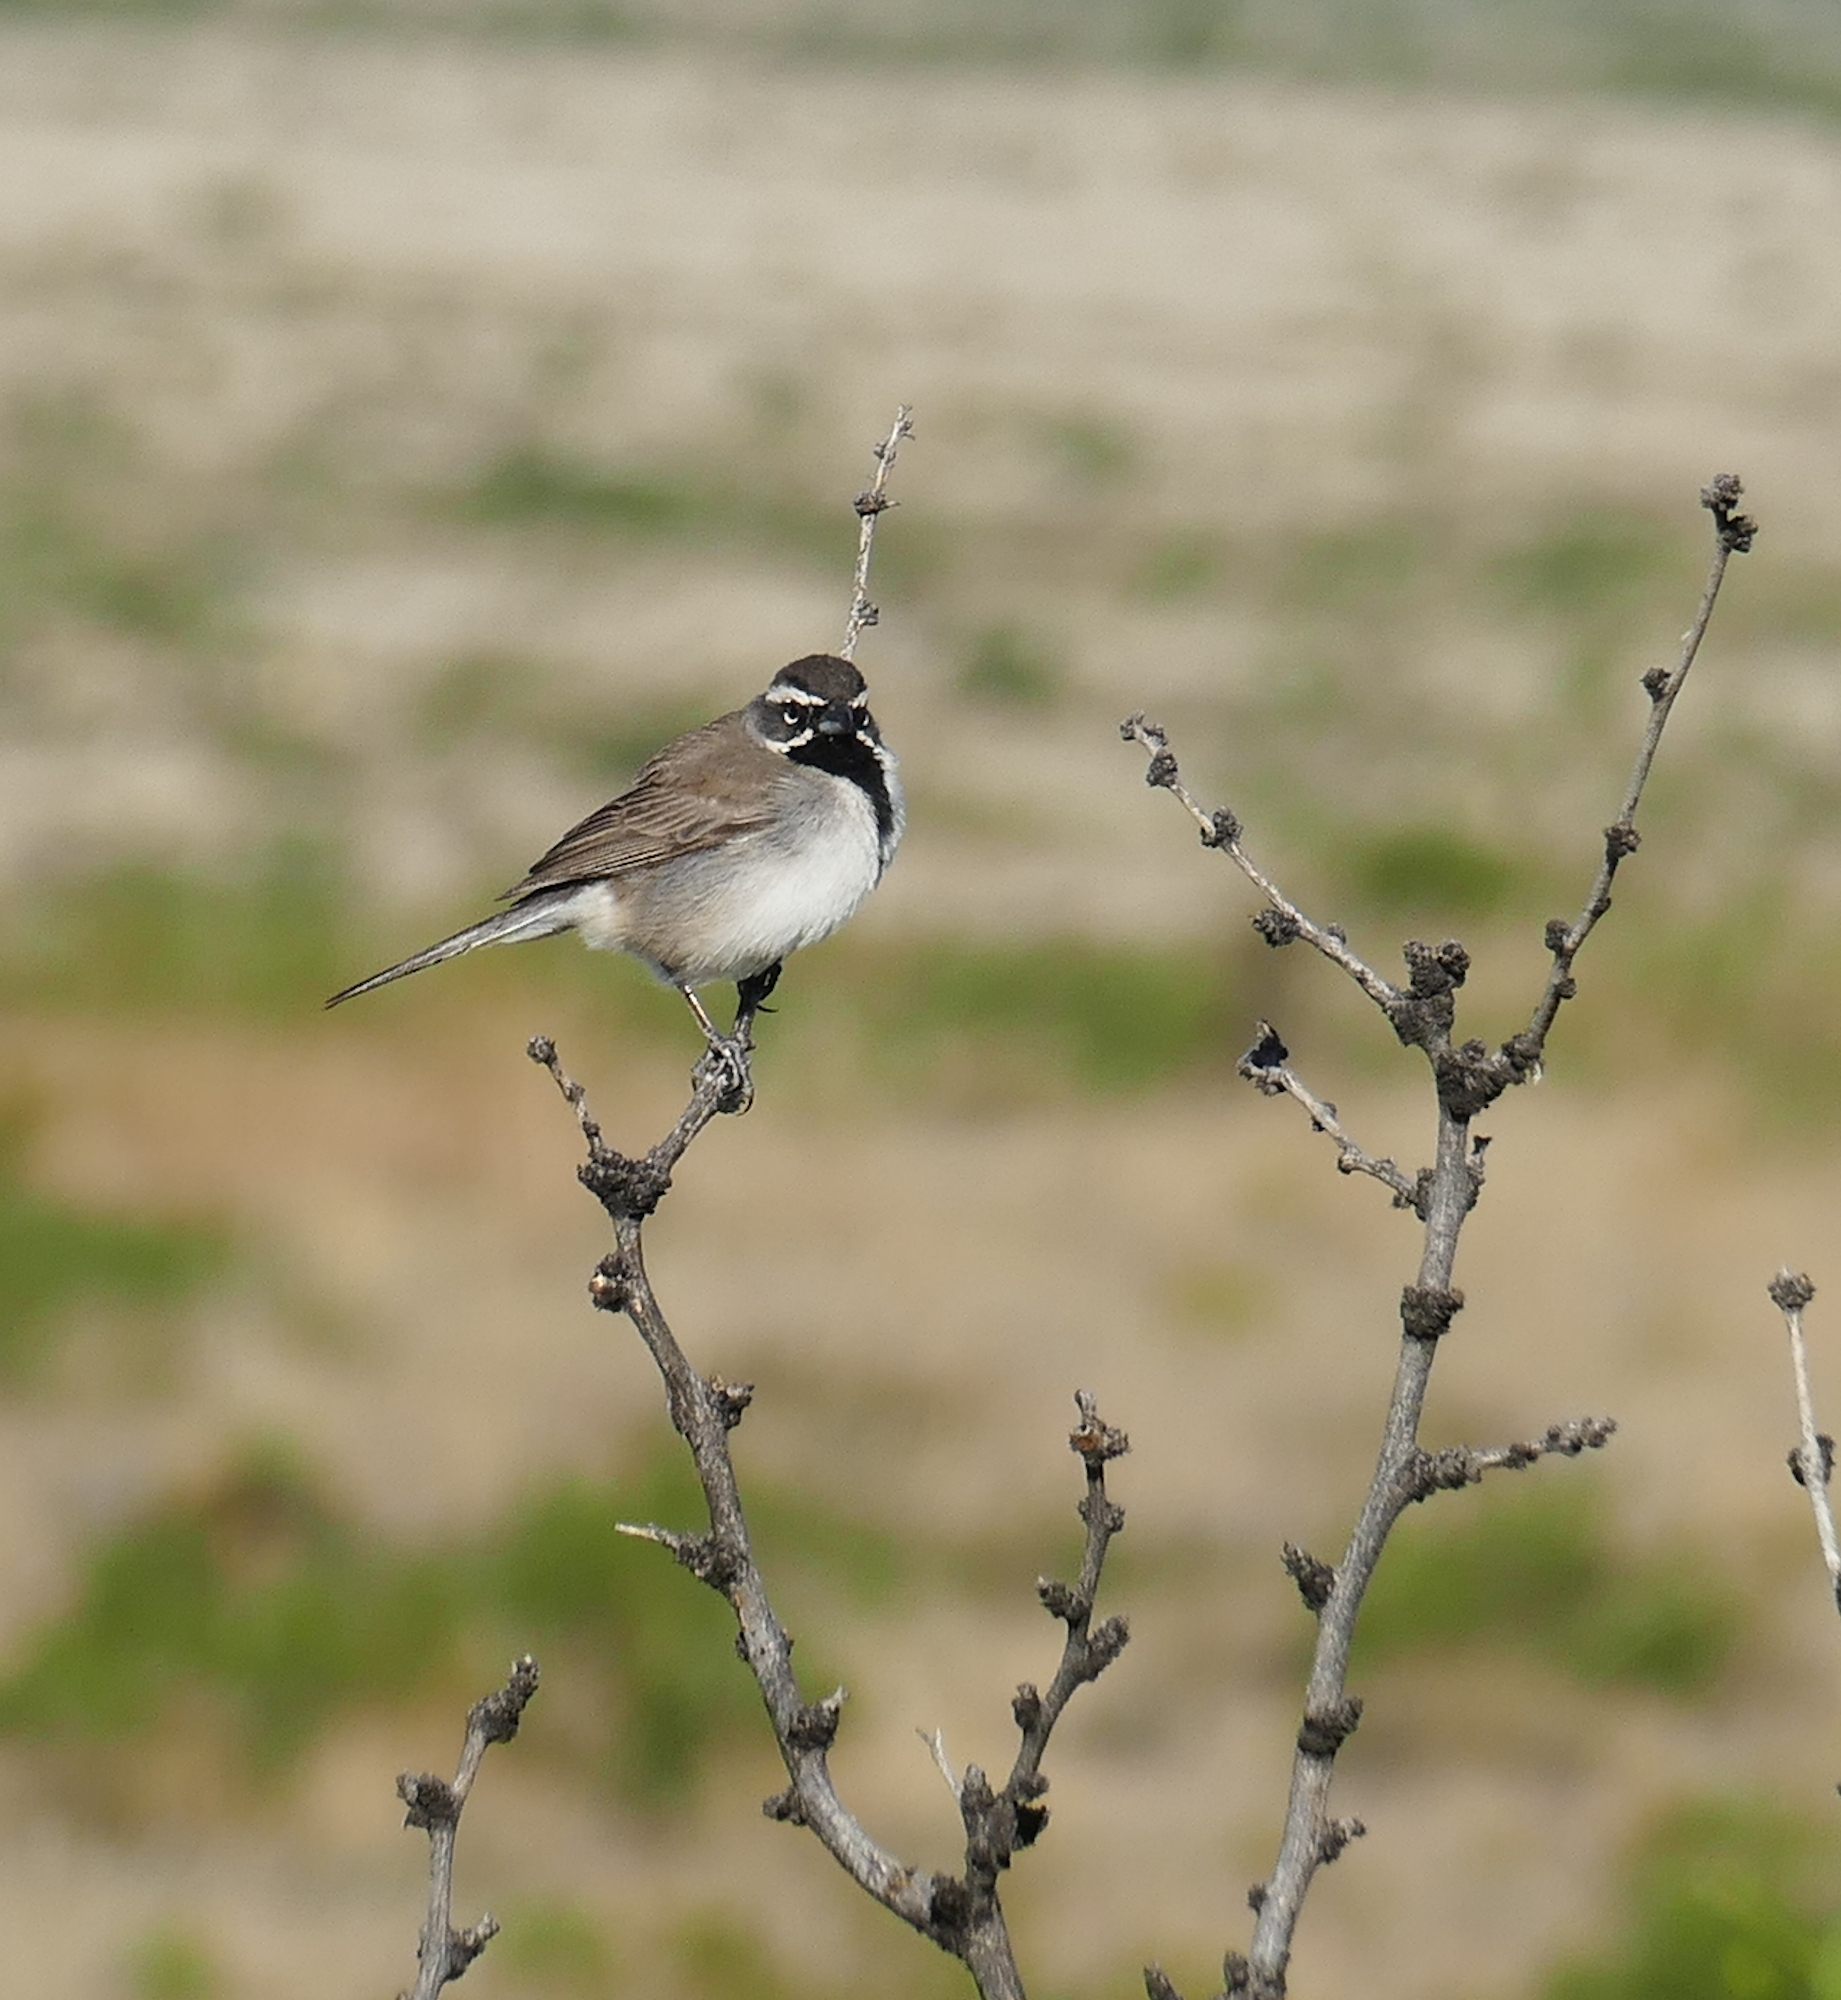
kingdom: Animalia
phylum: Chordata
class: Aves
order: Passeriformes
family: Passerellidae
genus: Amphispiza
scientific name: Amphispiza bilineata
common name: Black-throated sparrow
